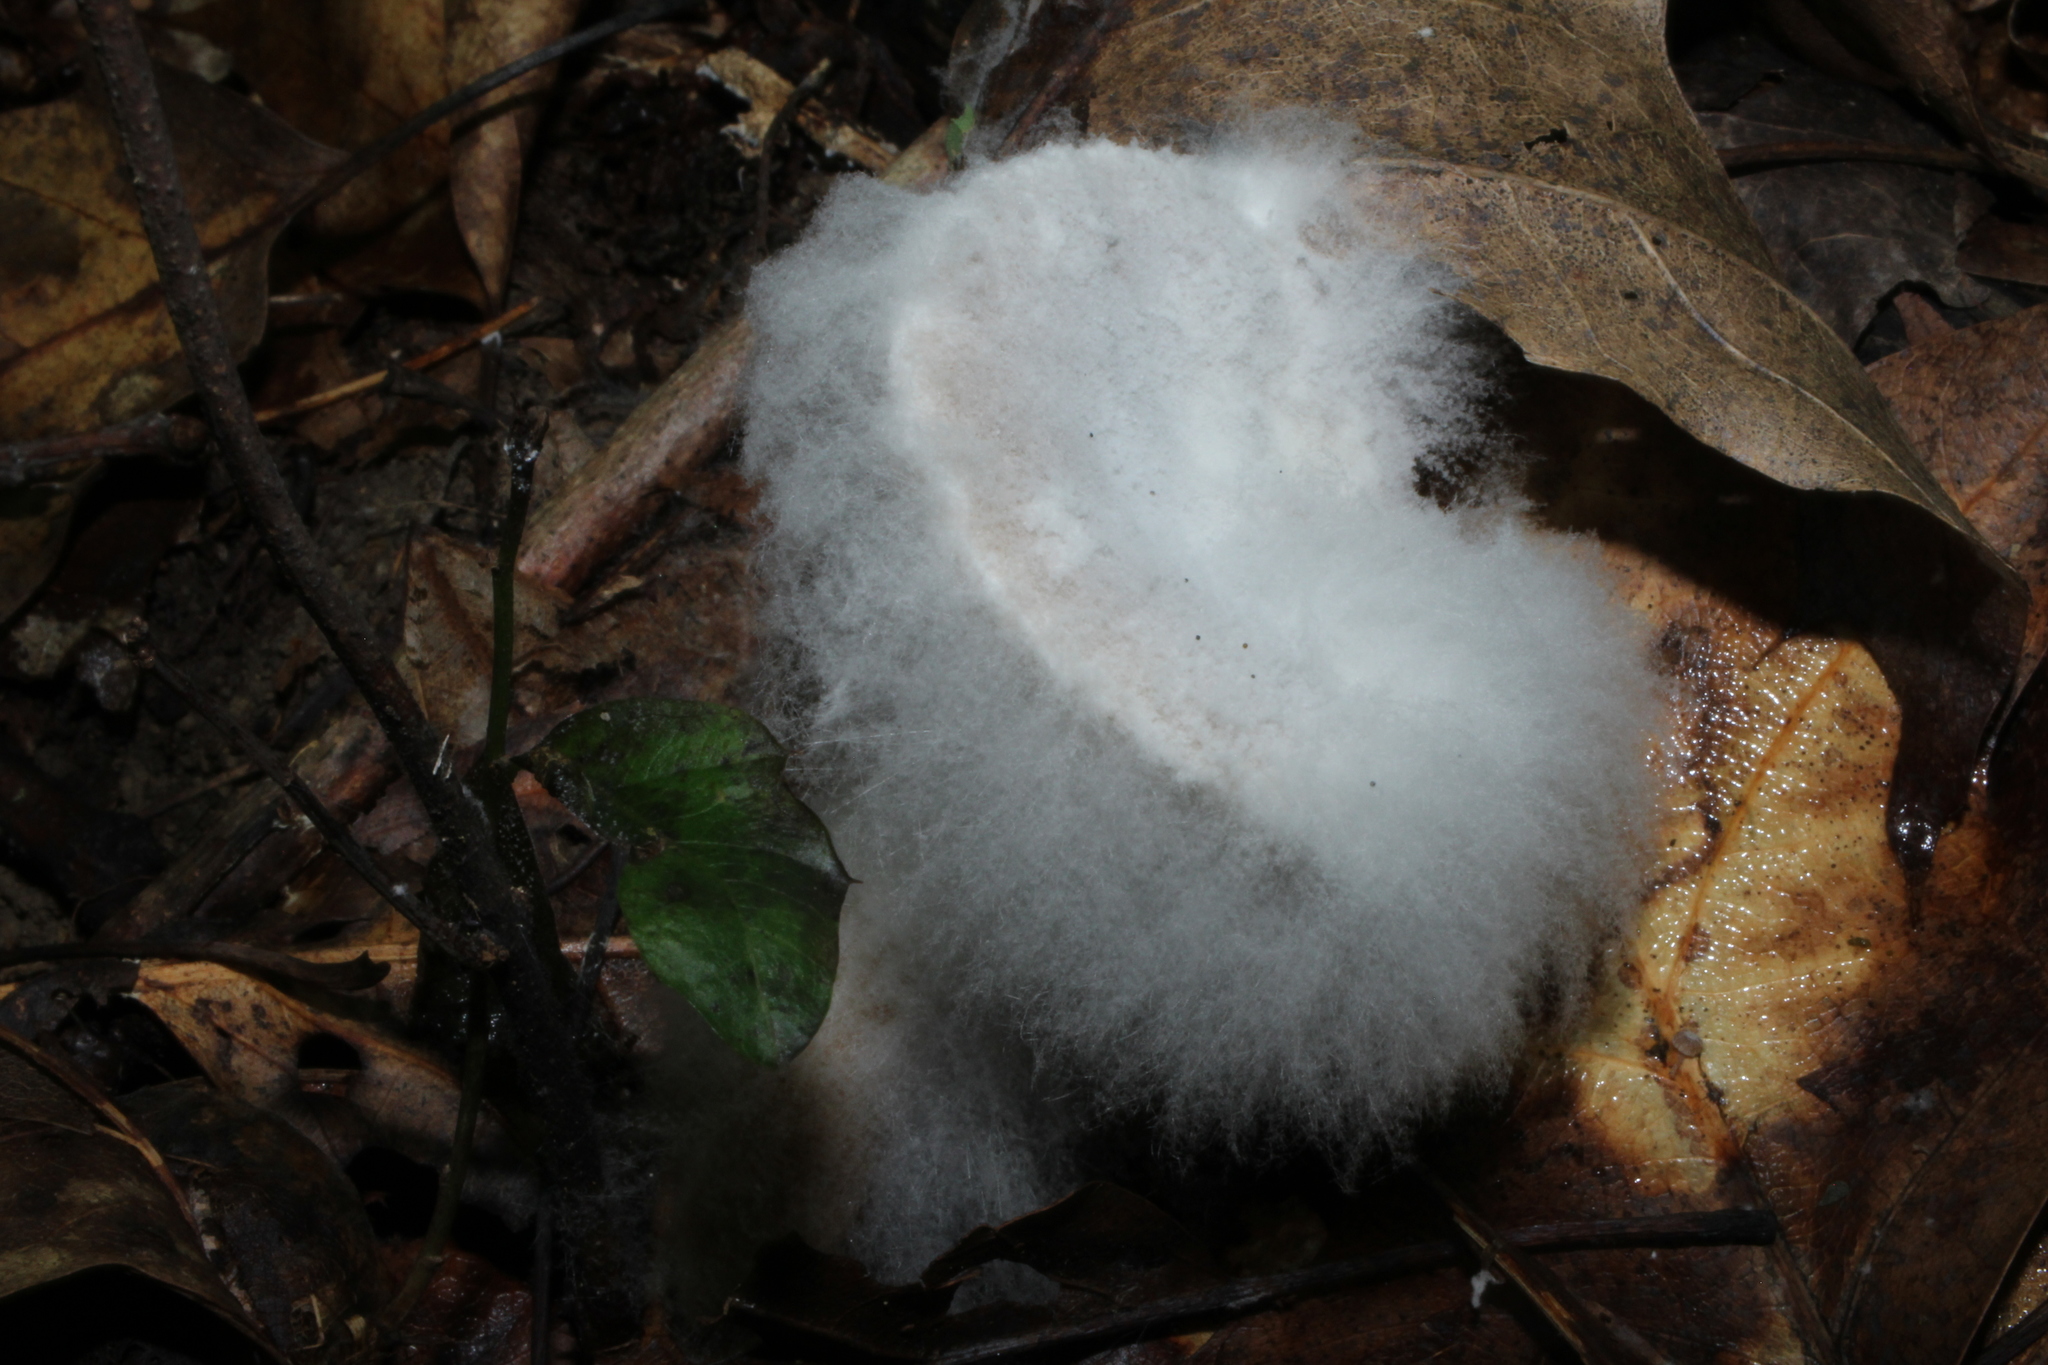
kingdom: Fungi
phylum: Mucoromycota
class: Mucoromycetes
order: Mucorales
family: Rhizopodaceae
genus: Syzygites
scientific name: Syzygites megalocarpus
